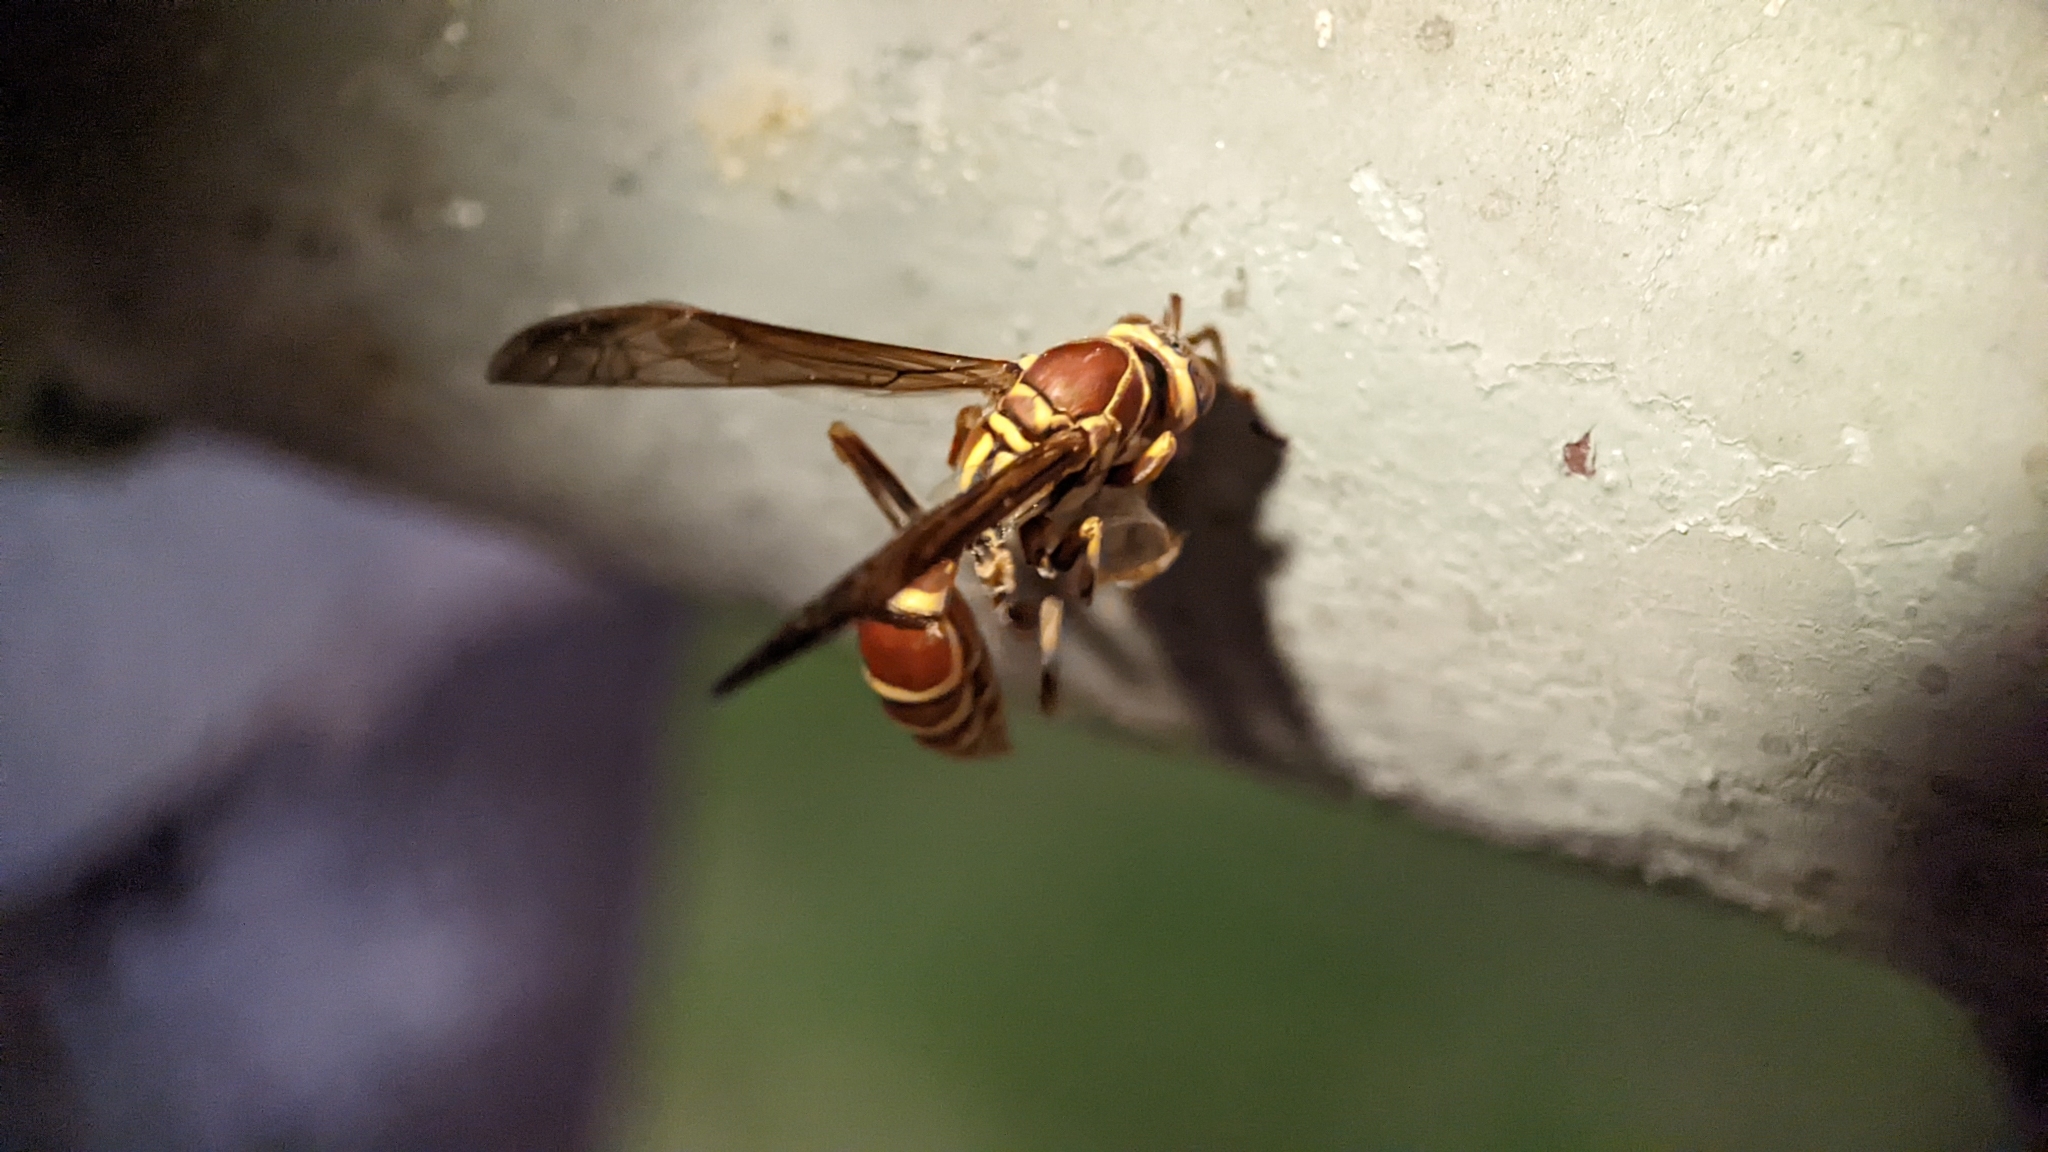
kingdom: Animalia
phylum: Arthropoda
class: Insecta
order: Hymenoptera
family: Eumenidae
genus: Polistes
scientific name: Polistes exclamans
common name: Paper wasp
